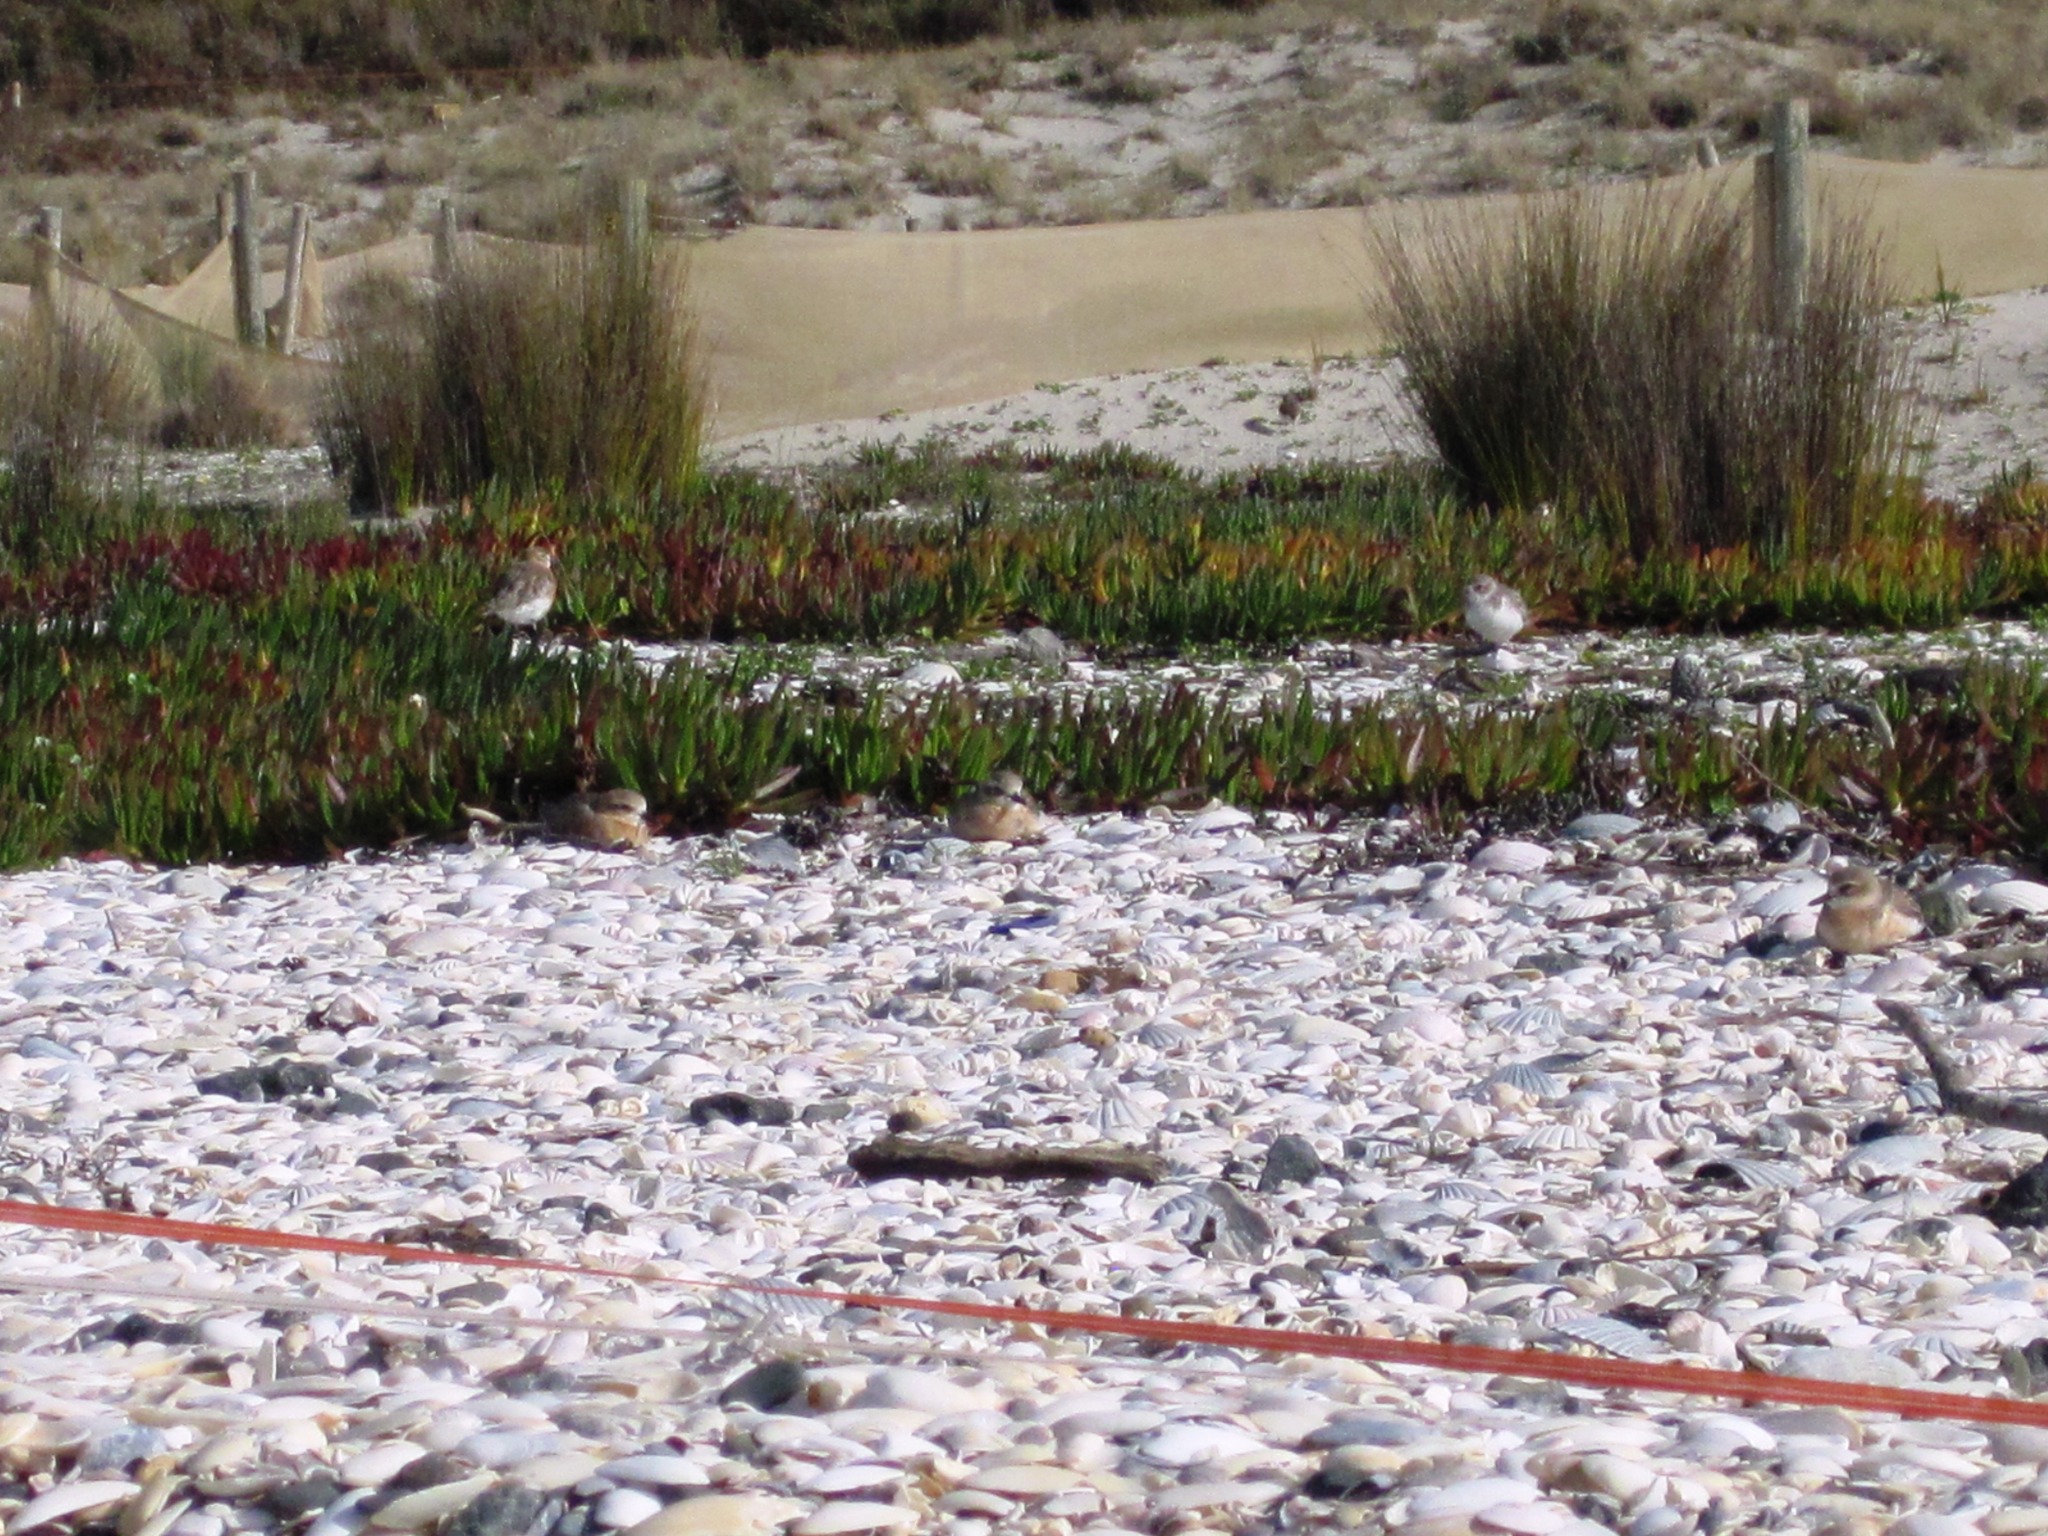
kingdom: Animalia
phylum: Chordata
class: Aves
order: Charadriiformes
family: Charadriidae
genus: Anarhynchus
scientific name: Anarhynchus
